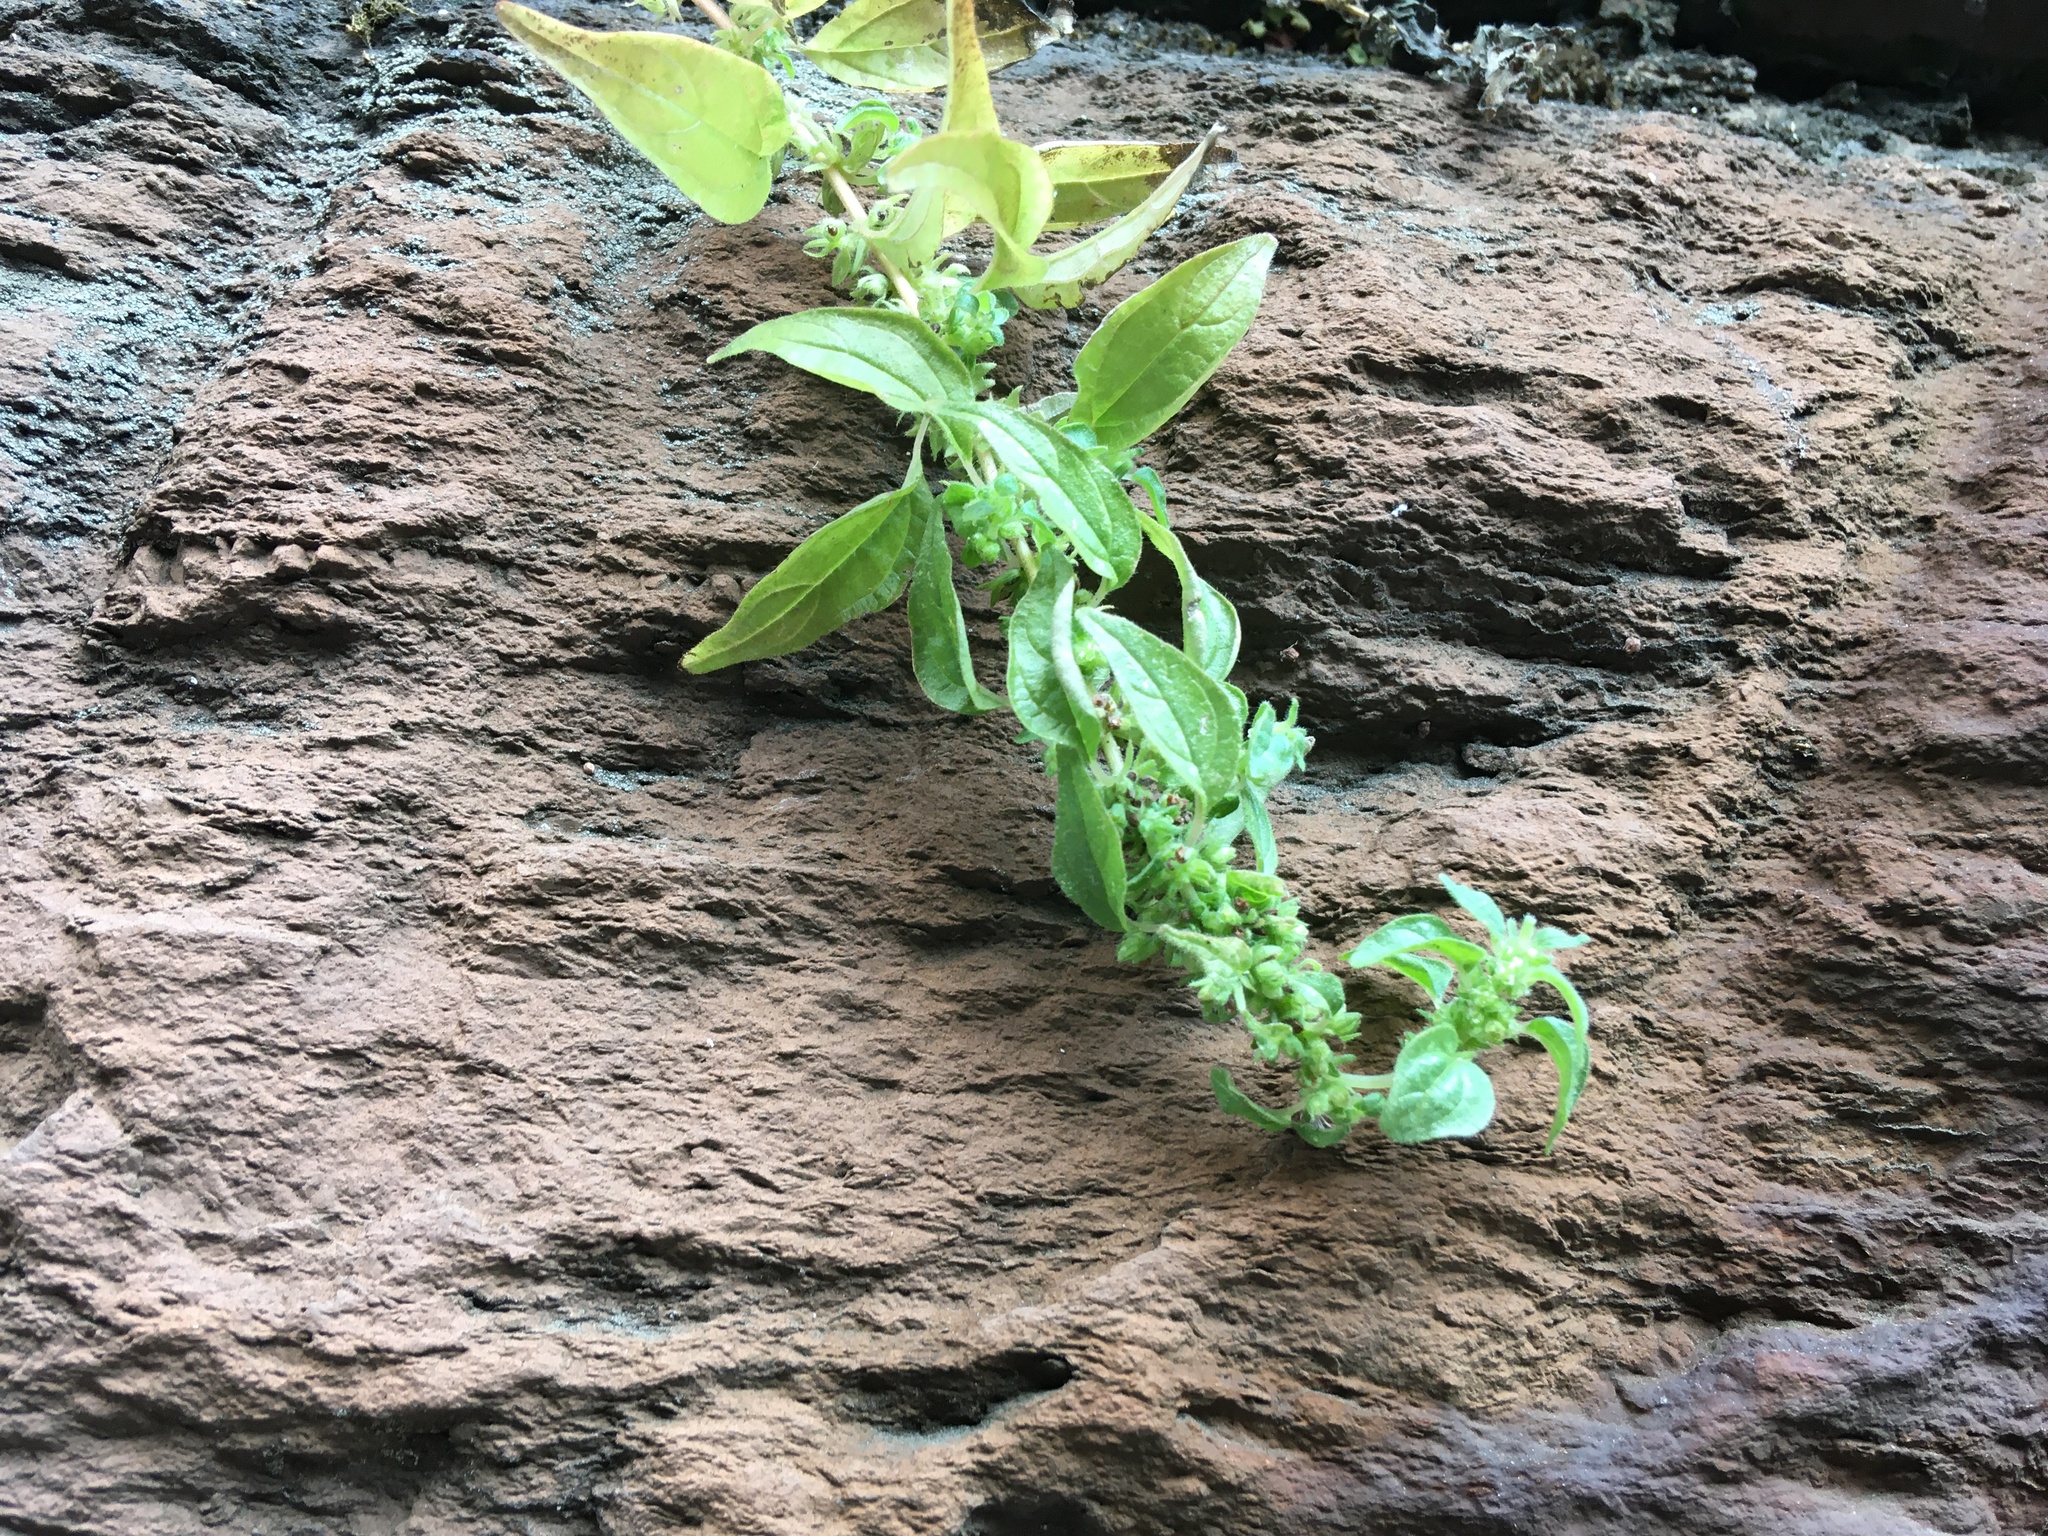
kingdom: Plantae
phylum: Tracheophyta
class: Magnoliopsida
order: Rosales
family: Urticaceae
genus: Parietaria
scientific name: Parietaria pensylvanica
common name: Pennsylvania pellitory
